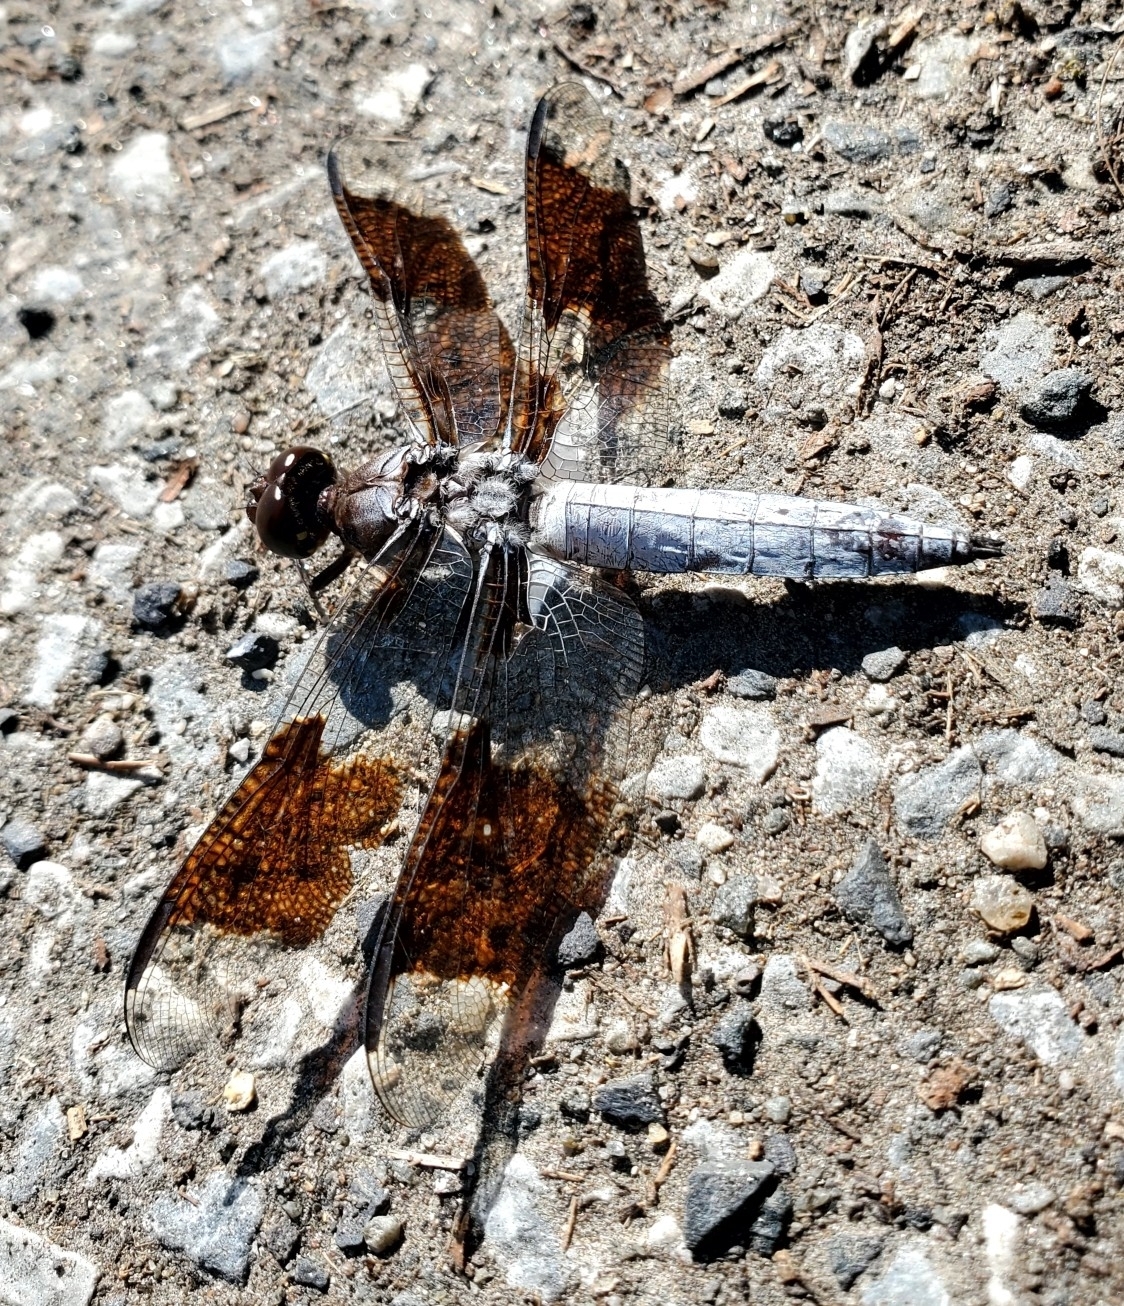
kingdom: Animalia
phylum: Arthropoda
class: Insecta
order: Odonata
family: Libellulidae
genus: Plathemis
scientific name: Plathemis lydia
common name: Common whitetail
